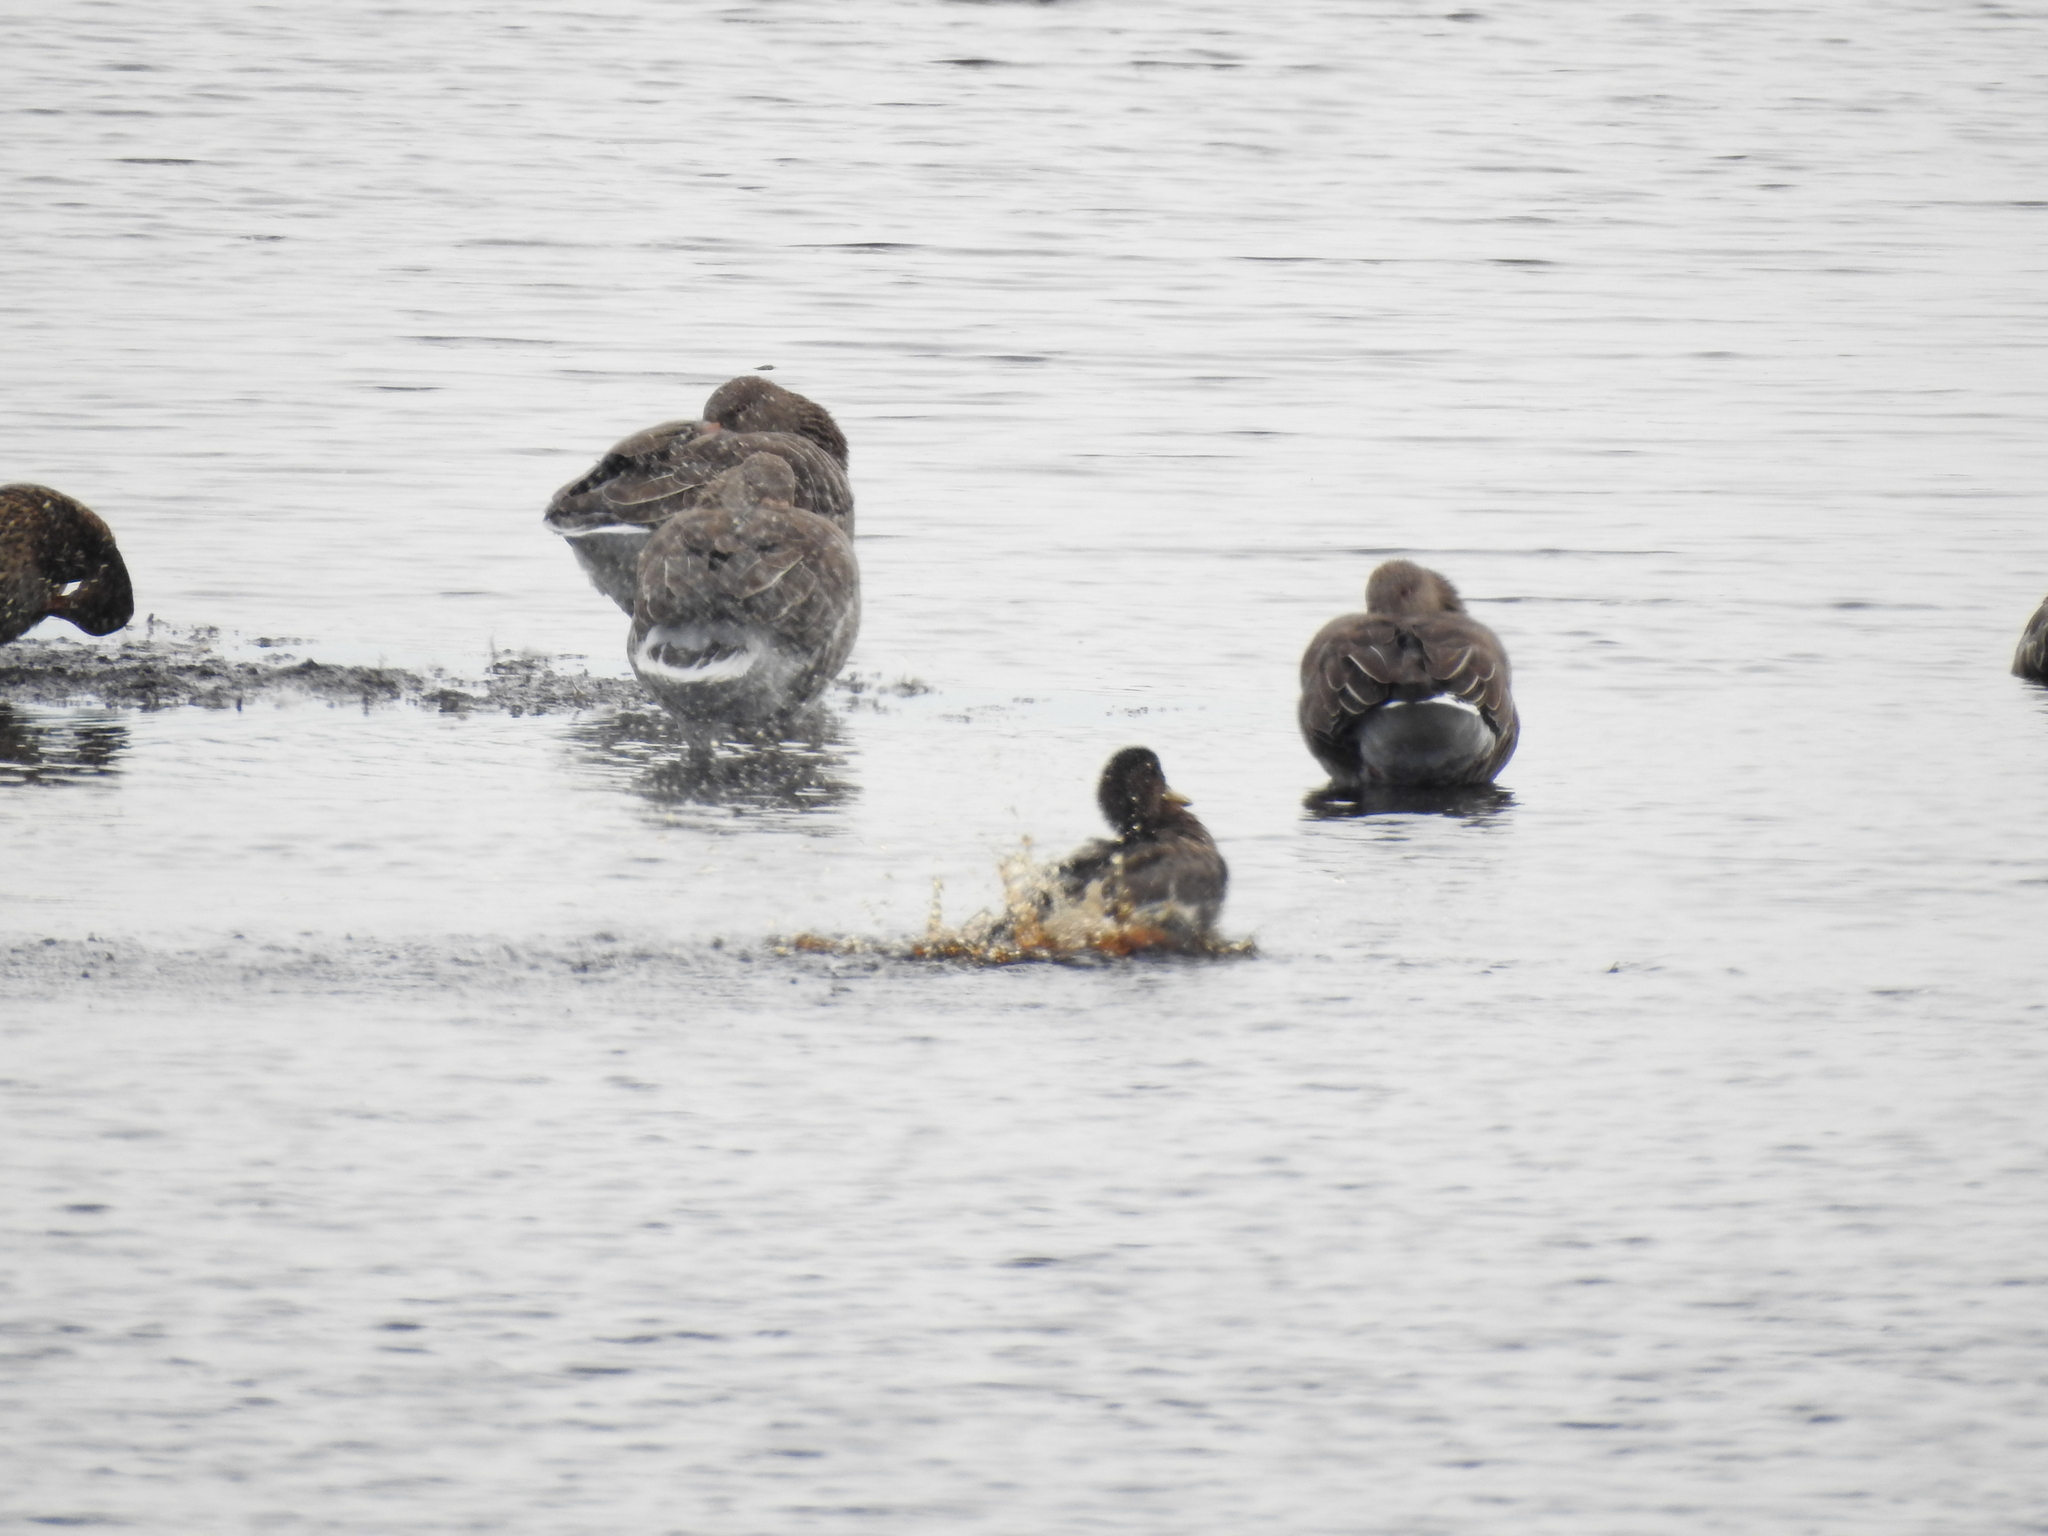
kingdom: Animalia
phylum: Chordata
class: Aves
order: Anseriformes
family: Anatidae
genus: Anas
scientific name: Anas platyrhynchos
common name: Mallard
